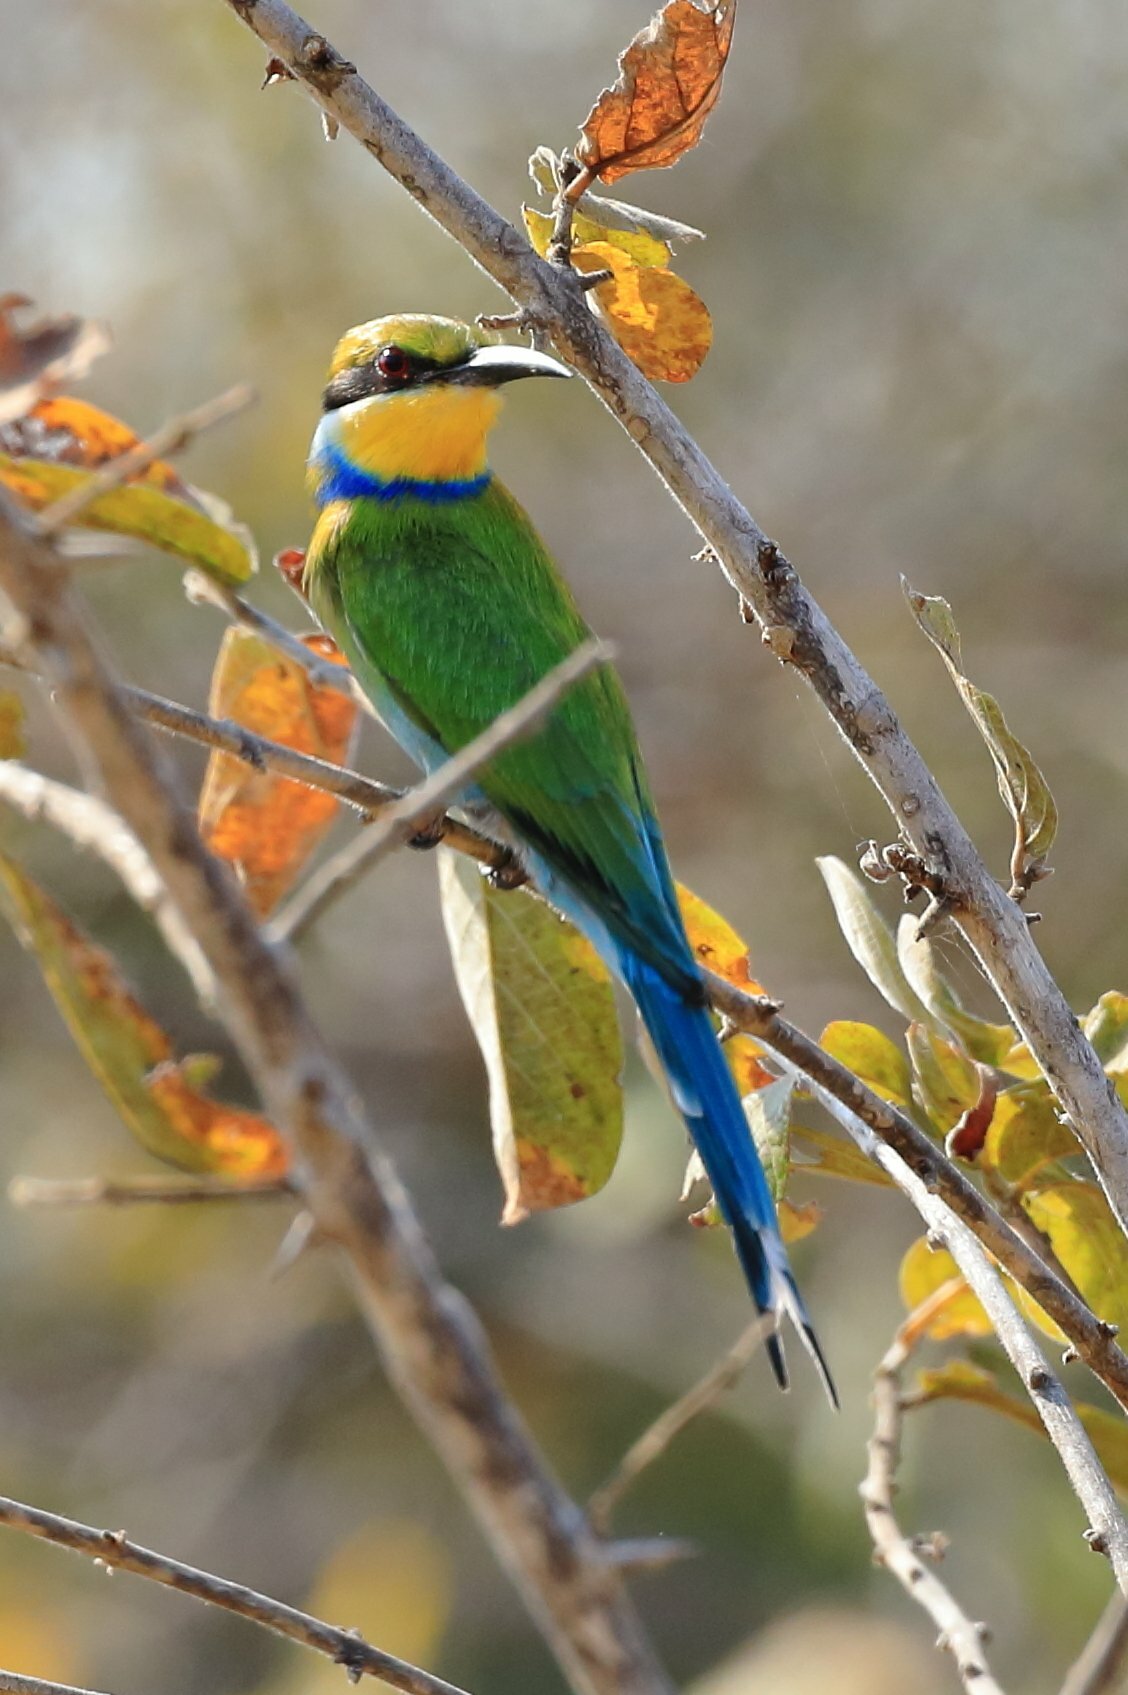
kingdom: Animalia
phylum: Chordata
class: Aves
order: Coraciiformes
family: Meropidae
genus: Merops
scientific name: Merops hirundineus
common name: Swallow-tailed bee-eater
